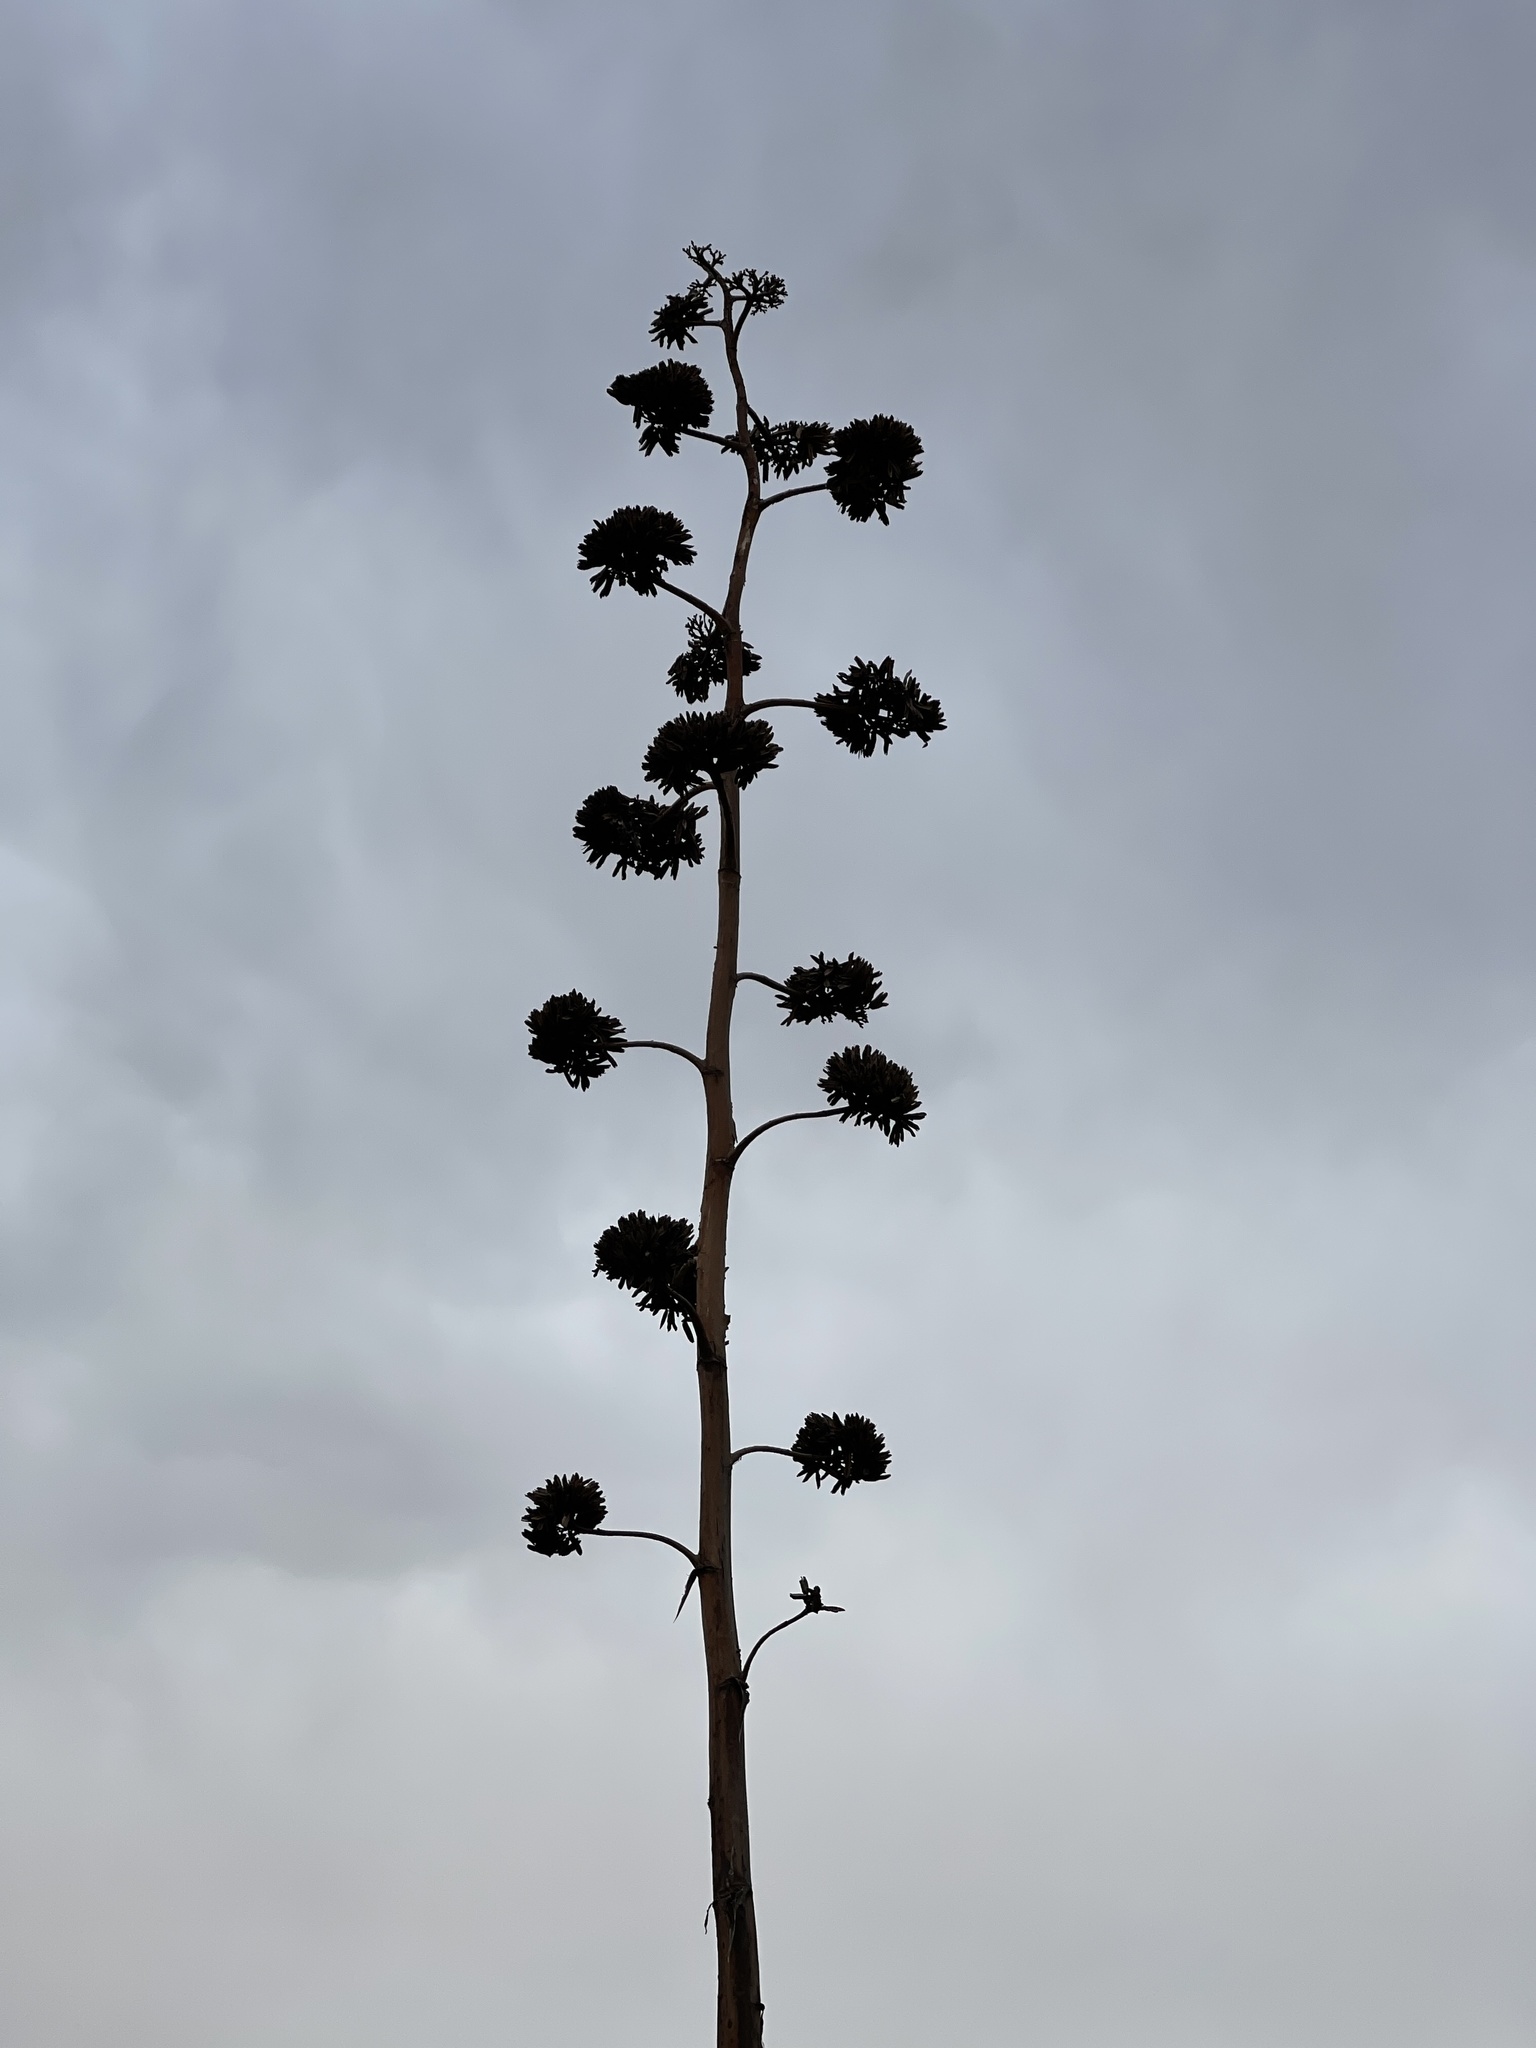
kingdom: Plantae
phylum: Tracheophyta
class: Liliopsida
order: Asparagales
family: Asparagaceae
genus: Agave
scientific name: Agave palmeri
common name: Palmer agave
